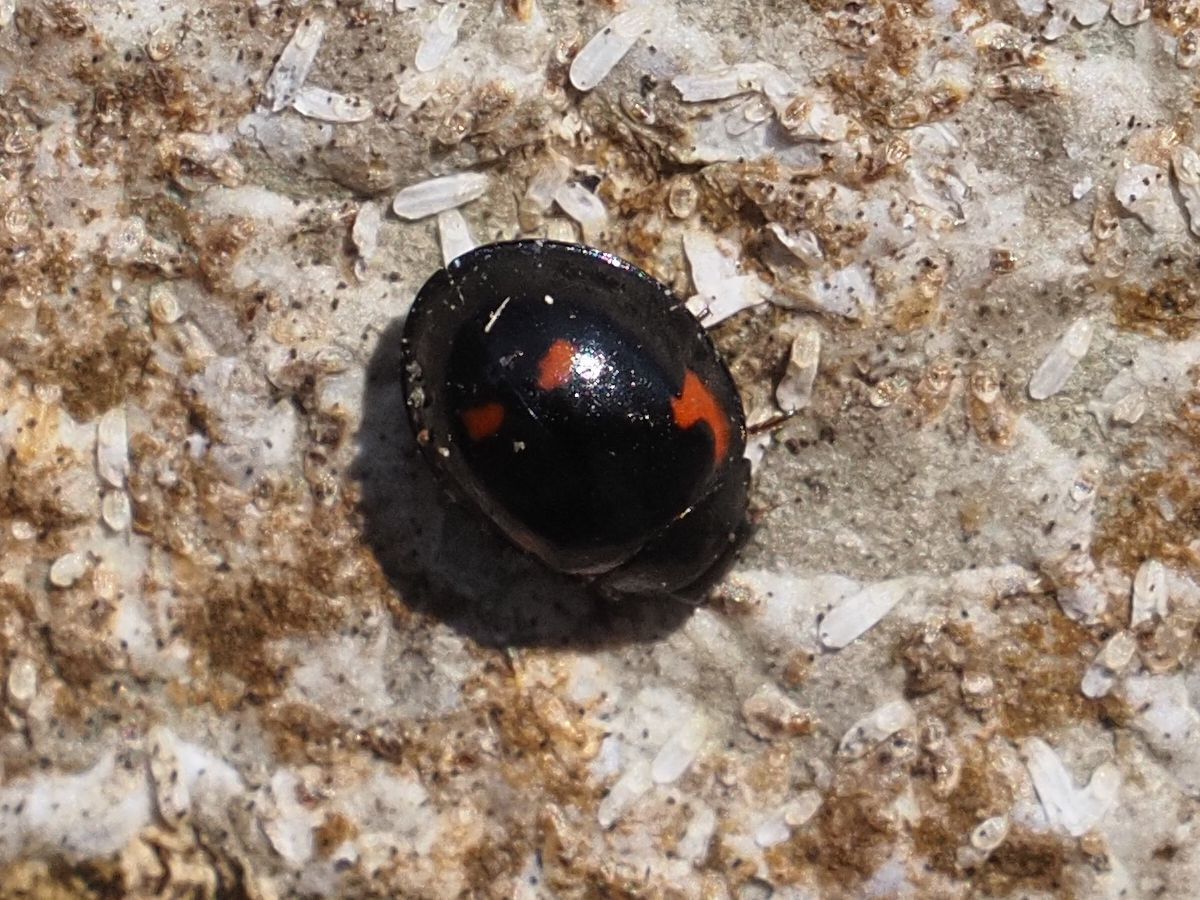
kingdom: Animalia
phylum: Arthropoda
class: Insecta
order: Coleoptera
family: Coccinellidae
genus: Brumus
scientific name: Brumus quadripustulatus
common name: Ladybird beetle
